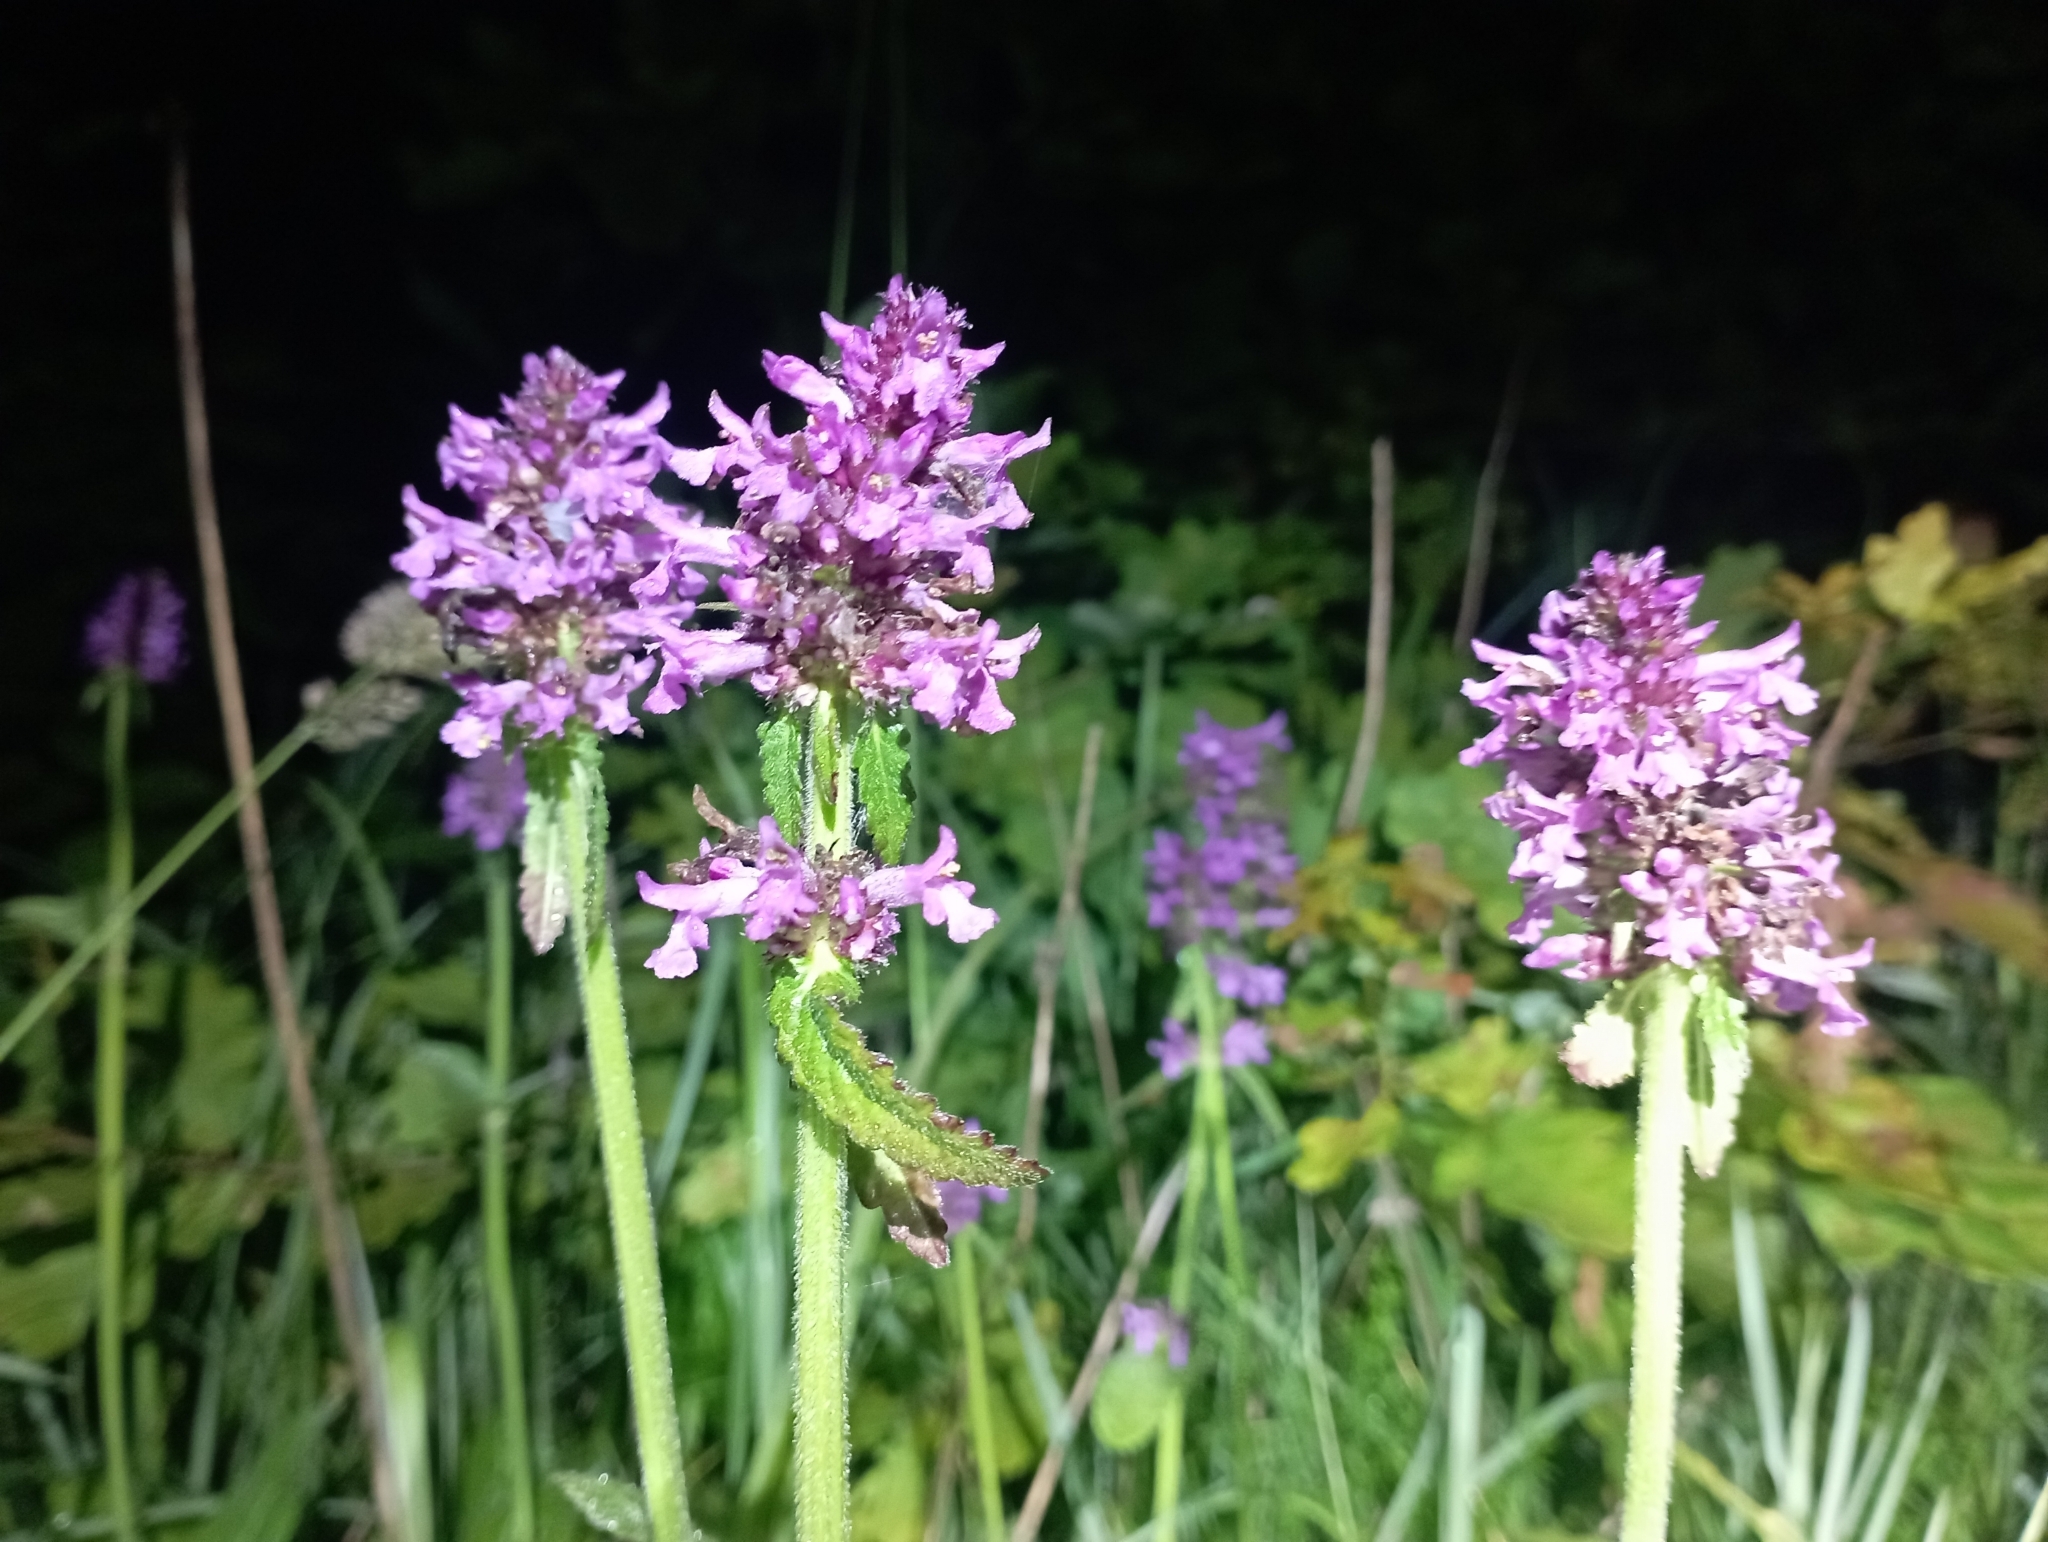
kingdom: Plantae
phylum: Tracheophyta
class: Magnoliopsida
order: Lamiales
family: Lamiaceae
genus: Betonica
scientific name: Betonica officinalis
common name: Bishop's-wort
